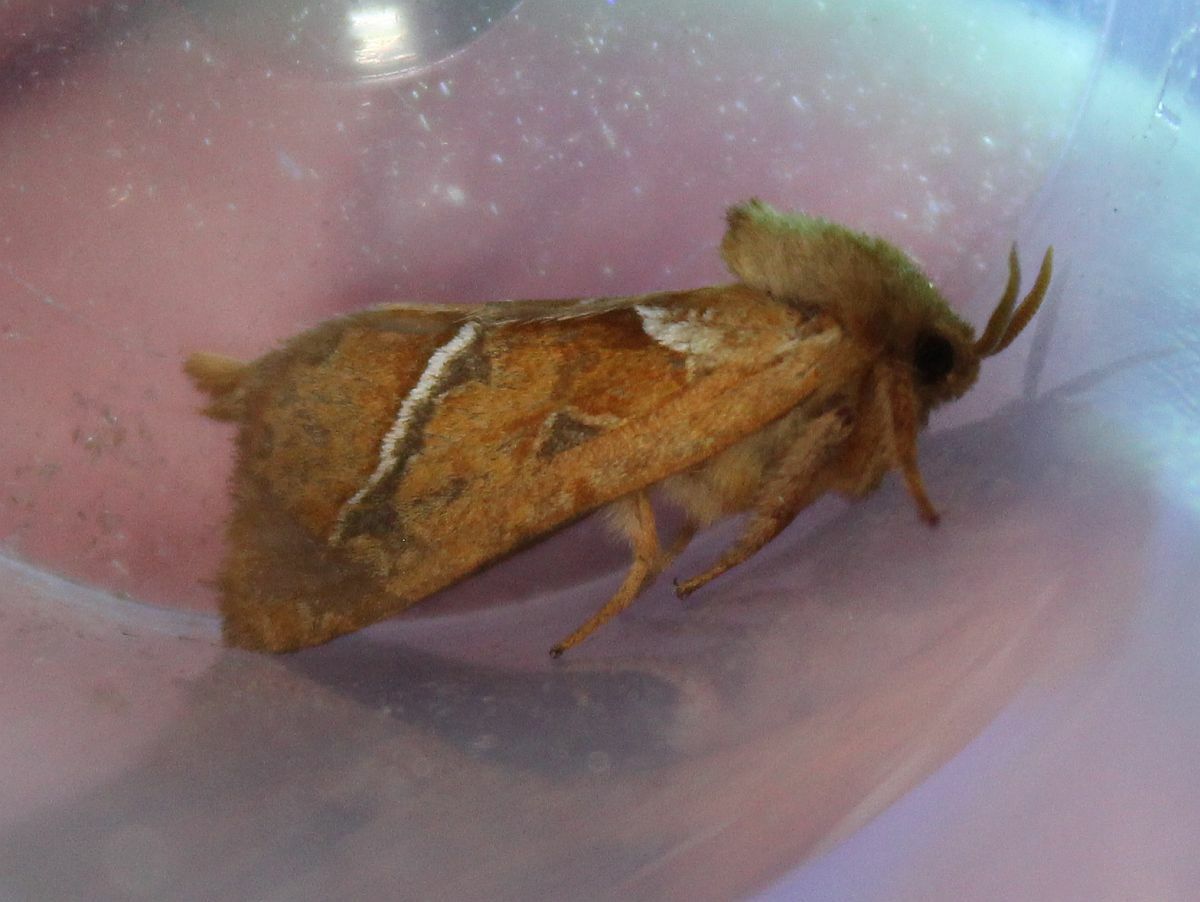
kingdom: Animalia
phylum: Arthropoda
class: Insecta
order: Lepidoptera
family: Hepialidae
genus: Triodia
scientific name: Triodia sylvina
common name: Orange swift
